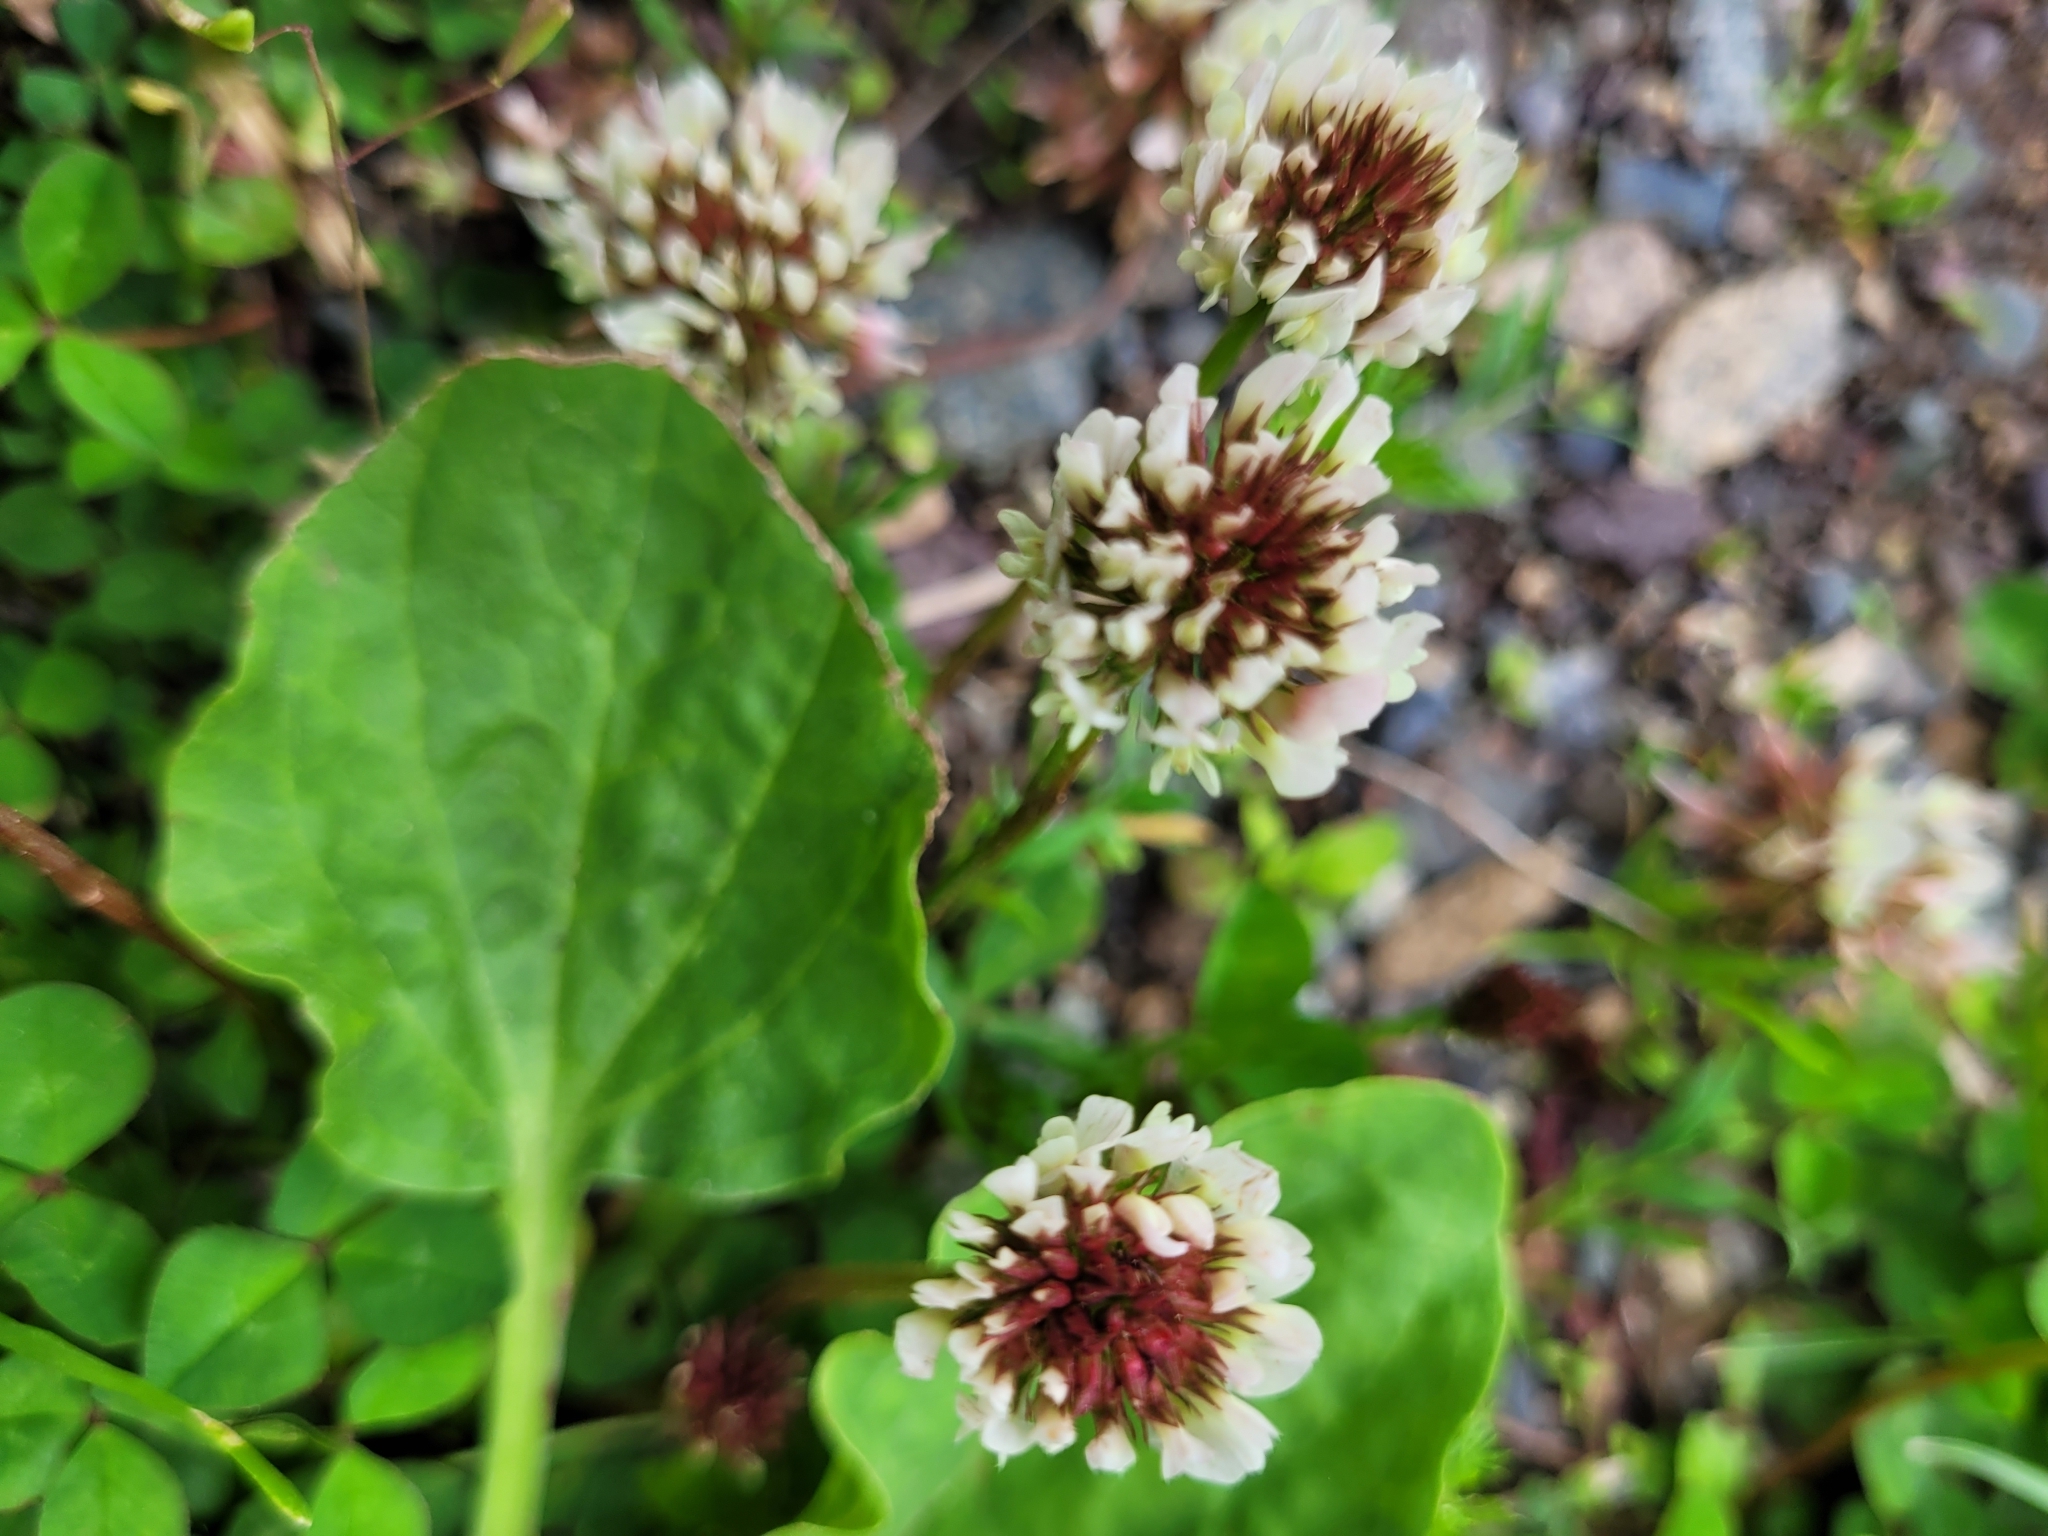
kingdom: Plantae
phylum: Tracheophyta
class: Magnoliopsida
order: Fabales
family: Fabaceae
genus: Trifolium
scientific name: Trifolium repens
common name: White clover
